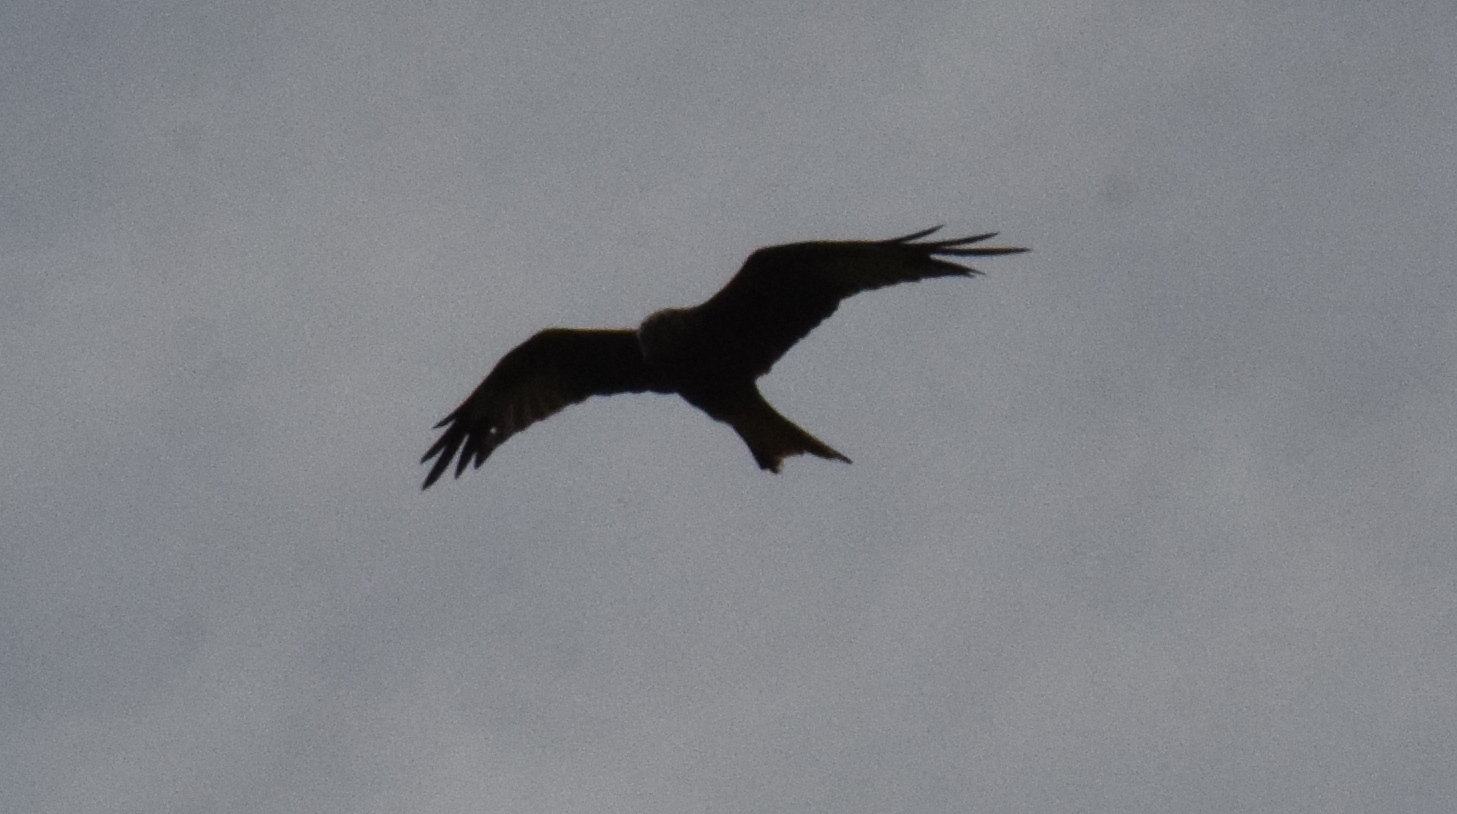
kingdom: Animalia
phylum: Chordata
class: Aves
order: Accipitriformes
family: Accipitridae
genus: Milvus
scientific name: Milvus milvus
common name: Red kite
